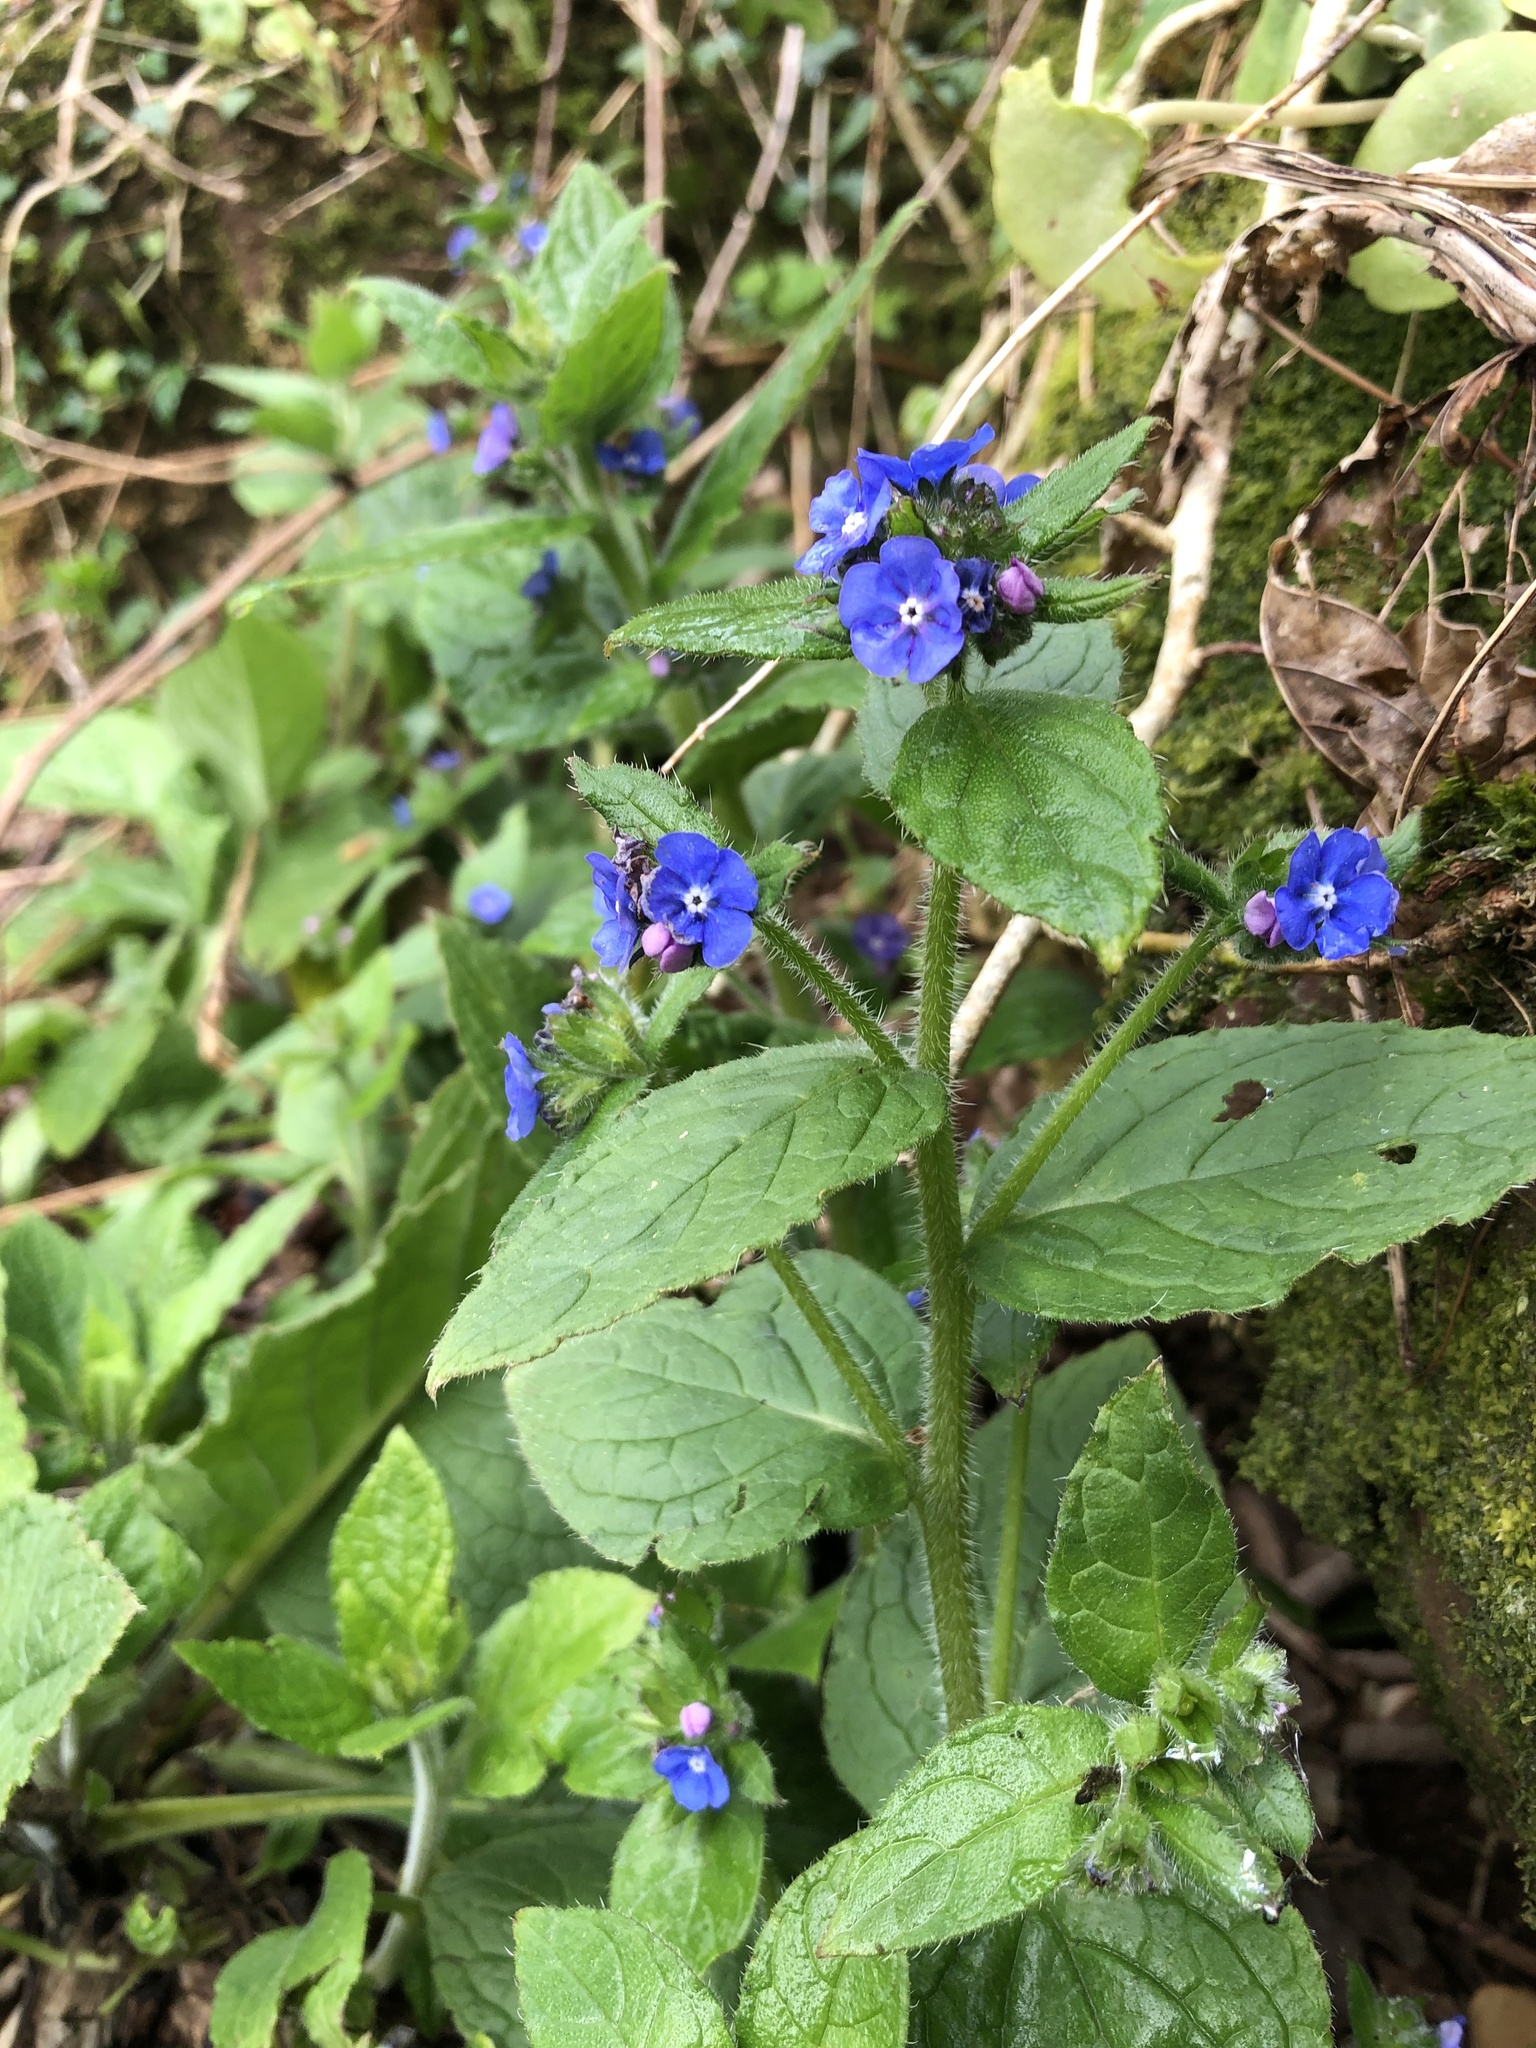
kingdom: Plantae
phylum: Tracheophyta
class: Magnoliopsida
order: Boraginales
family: Boraginaceae
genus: Pentaglottis
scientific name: Pentaglottis sempervirens
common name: Green alkanet
